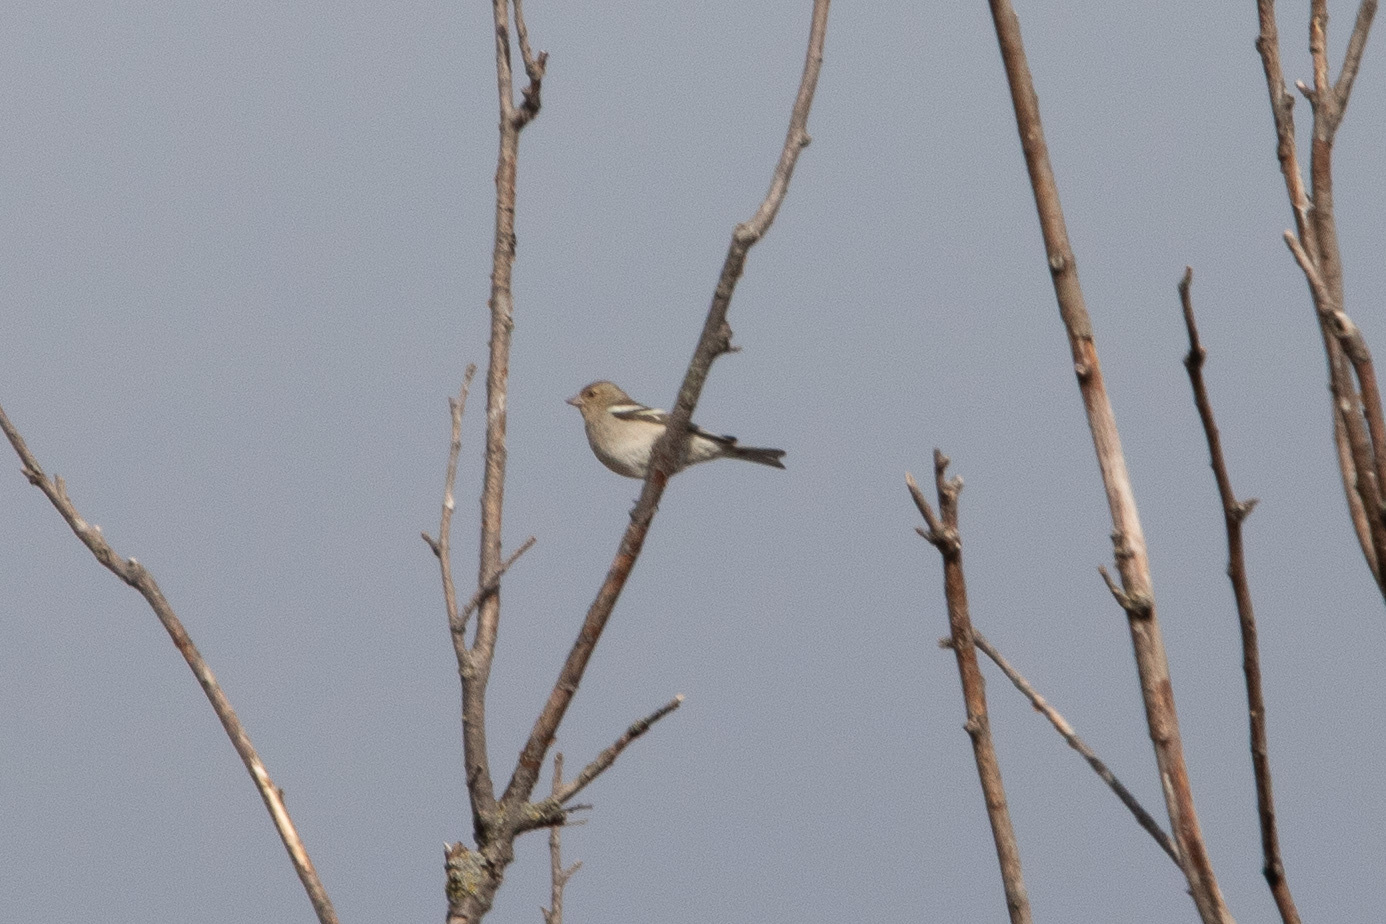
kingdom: Animalia
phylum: Chordata
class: Aves
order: Passeriformes
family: Fringillidae
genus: Fringilla
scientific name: Fringilla coelebs
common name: Common chaffinch
